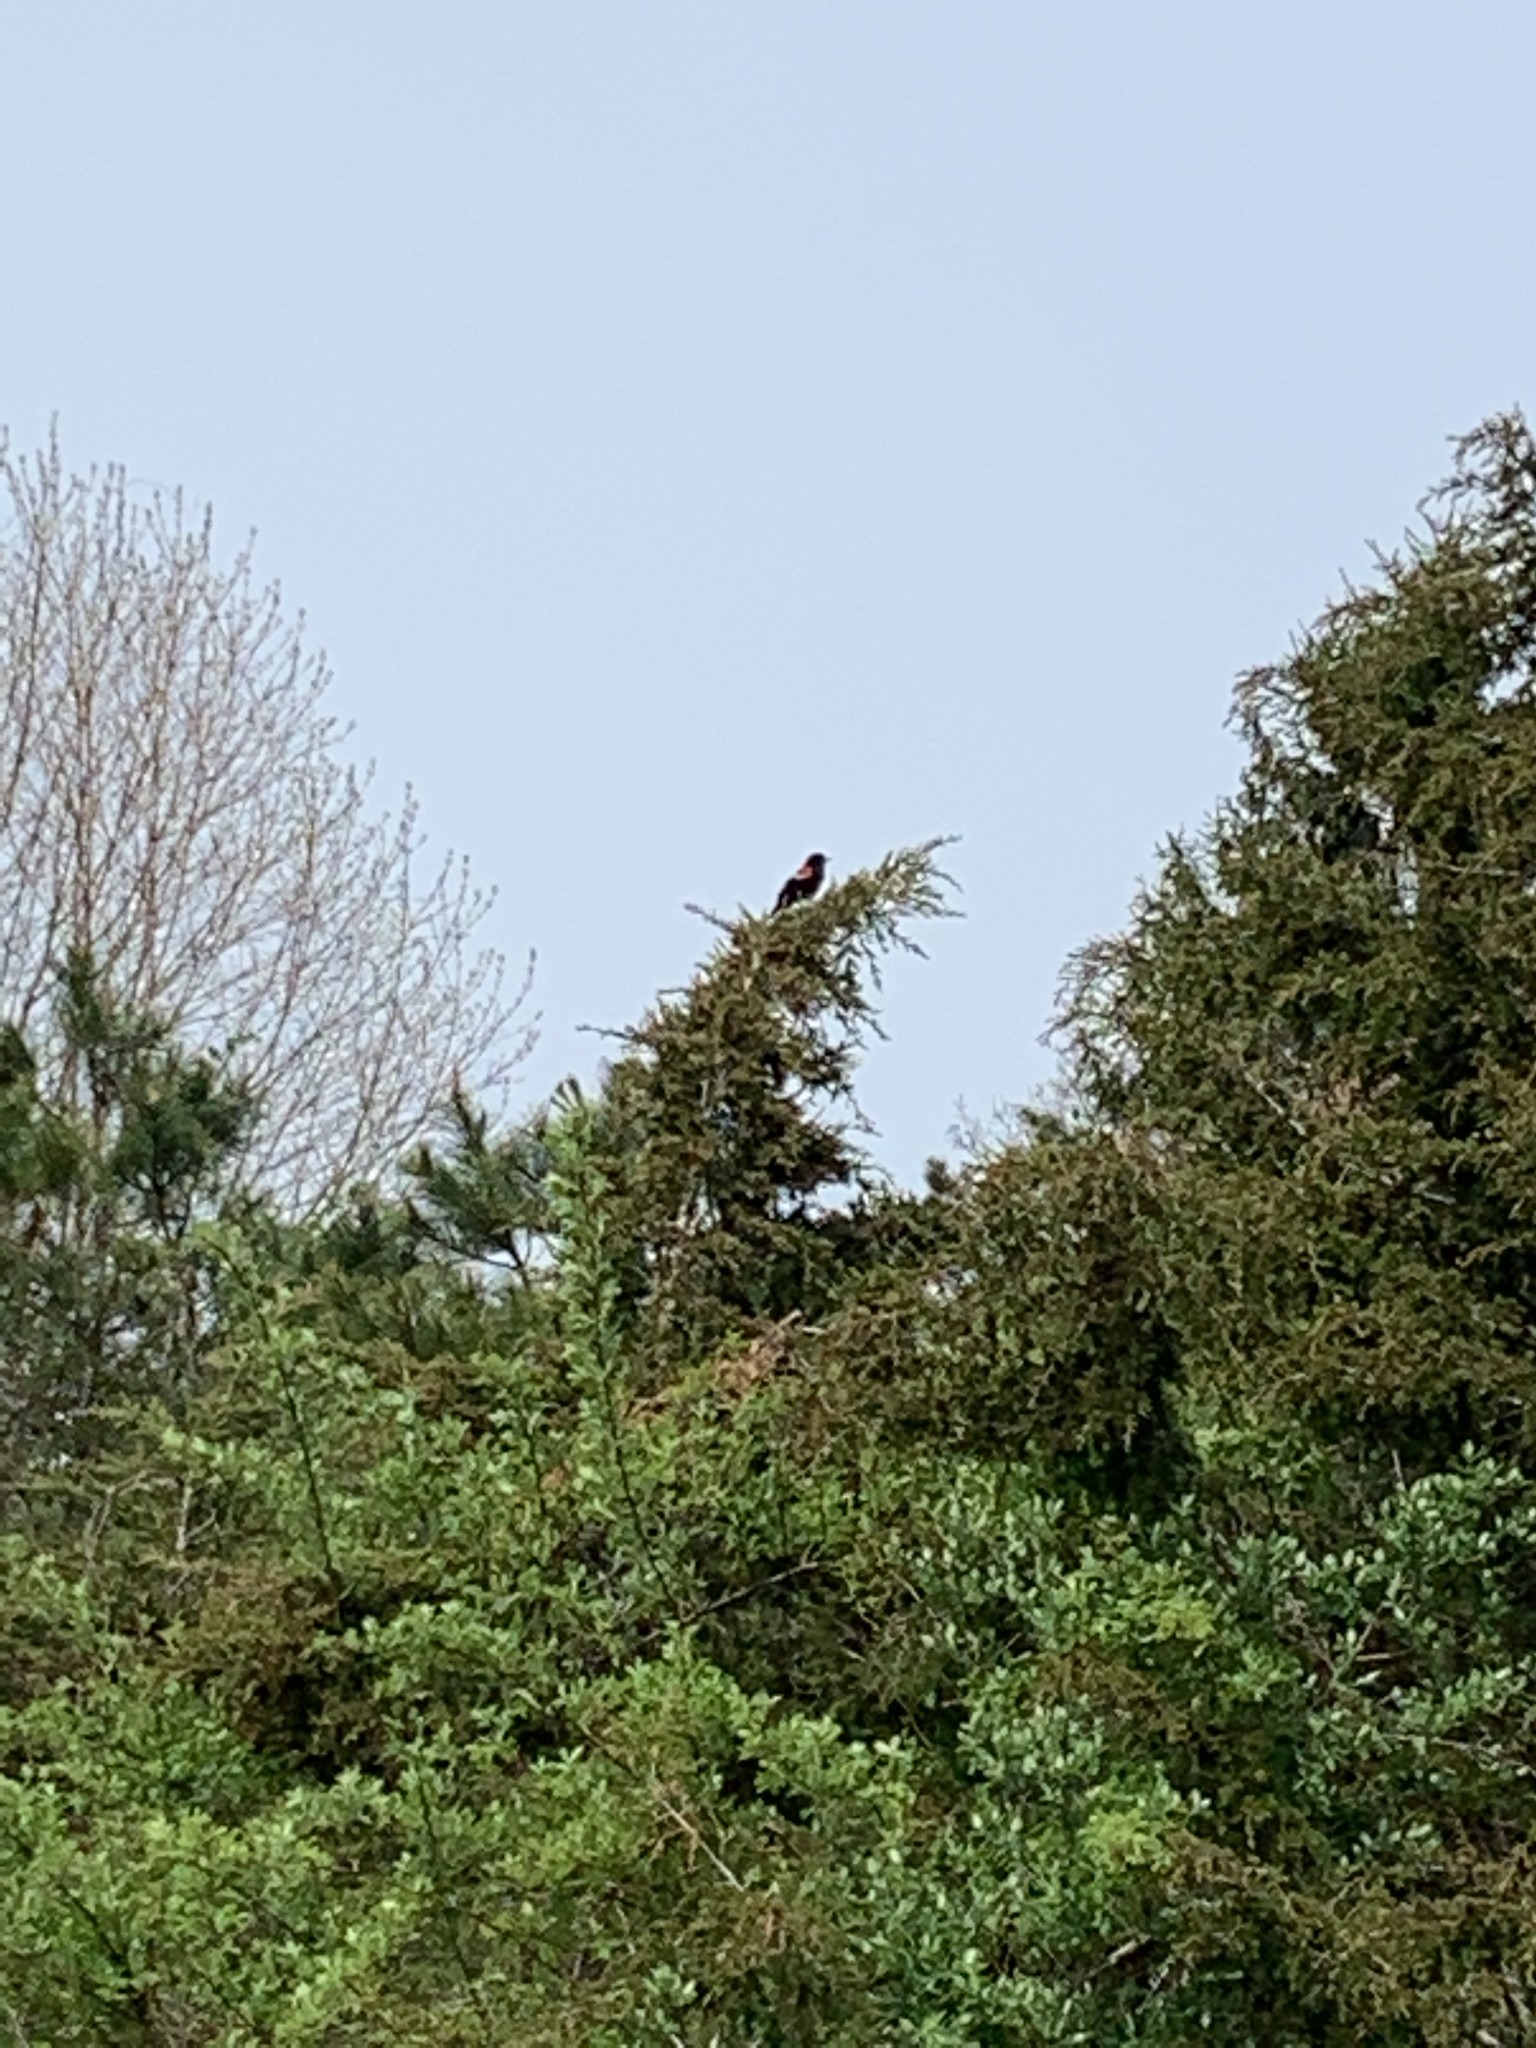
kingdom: Animalia
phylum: Chordata
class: Aves
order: Passeriformes
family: Icteridae
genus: Agelaius
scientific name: Agelaius phoeniceus
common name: Red-winged blackbird
